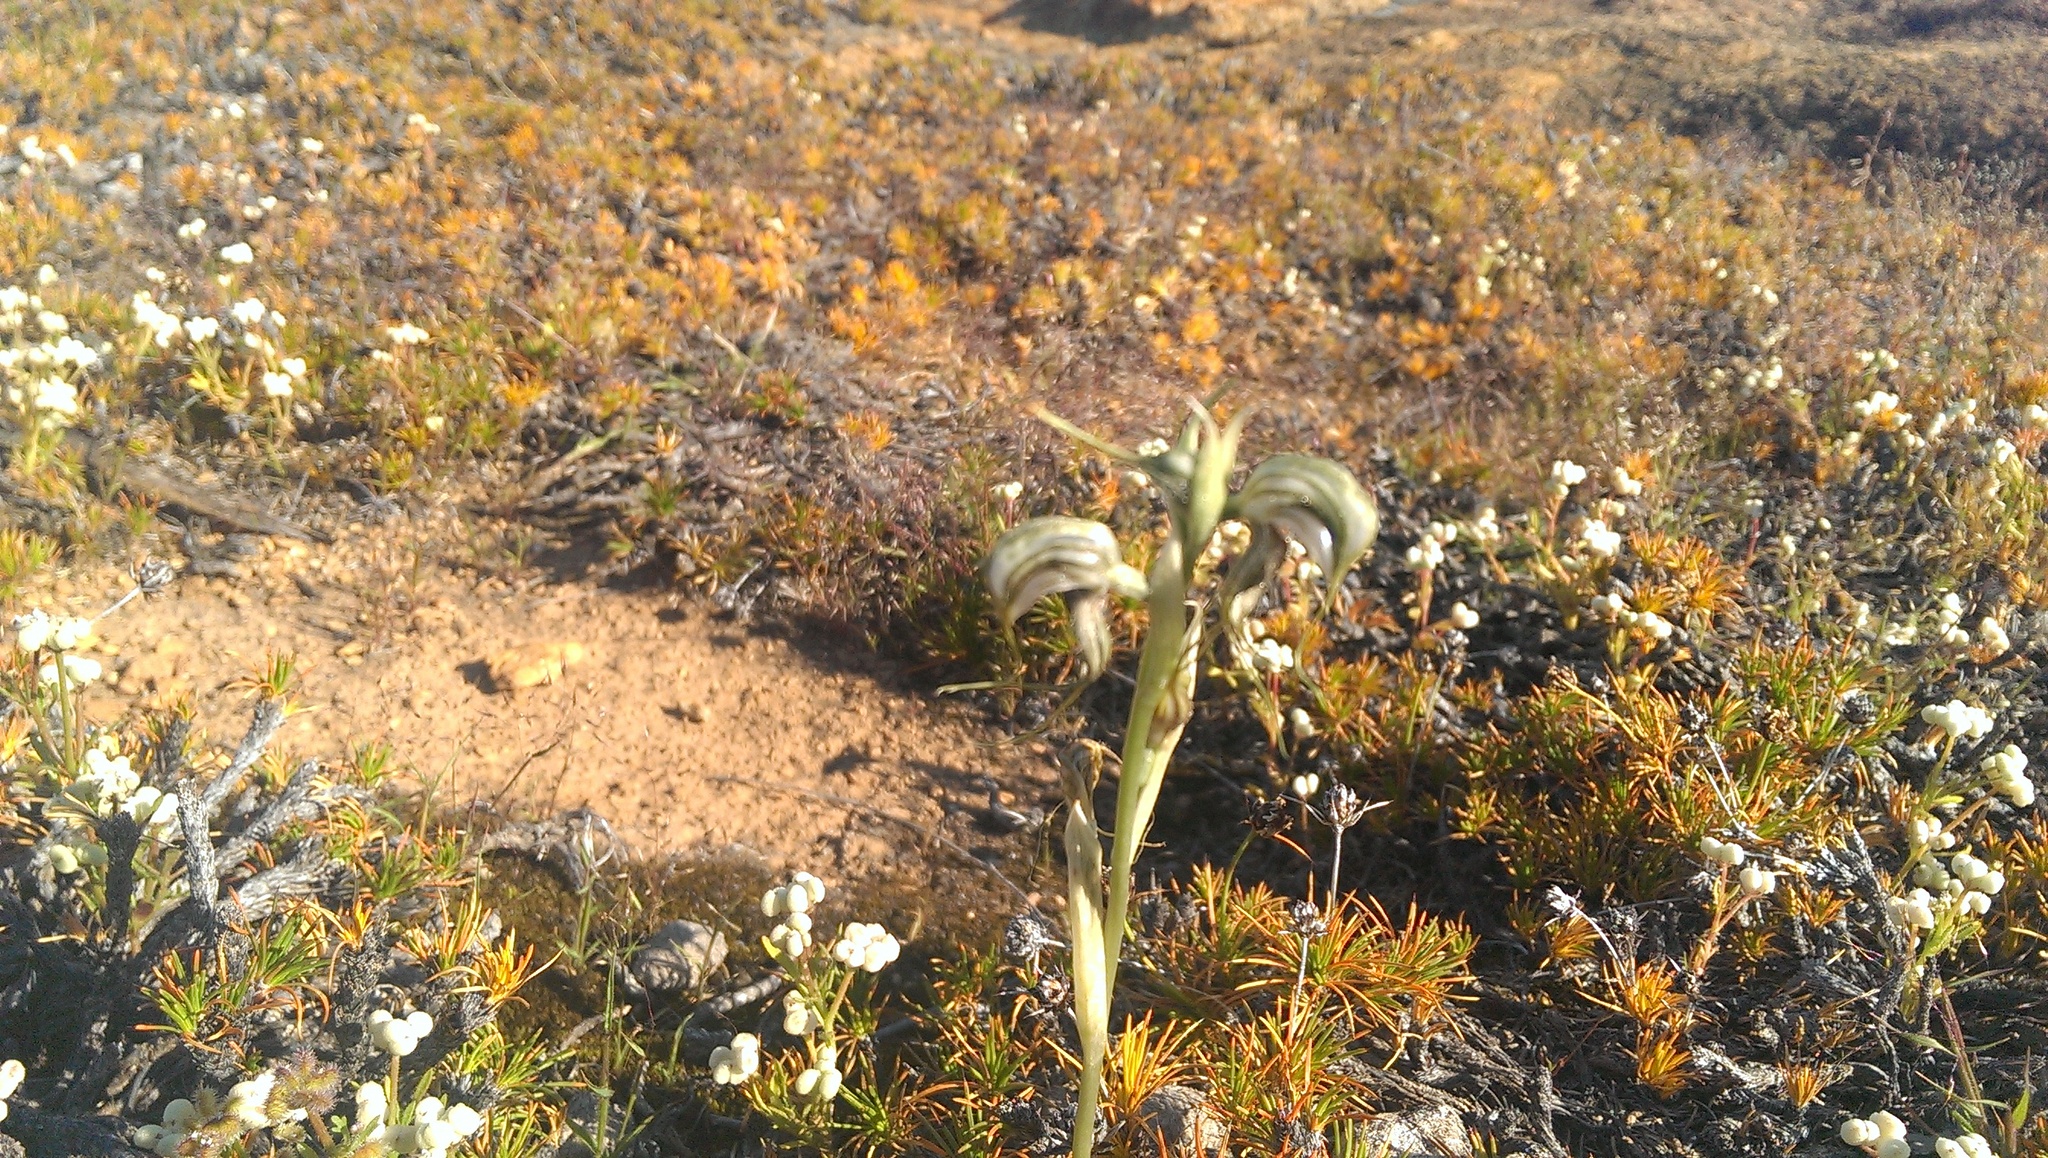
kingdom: Plantae
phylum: Tracheophyta
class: Liliopsida
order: Asparagales
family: Orchidaceae
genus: Pterostylis
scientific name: Pterostylis spathulata
